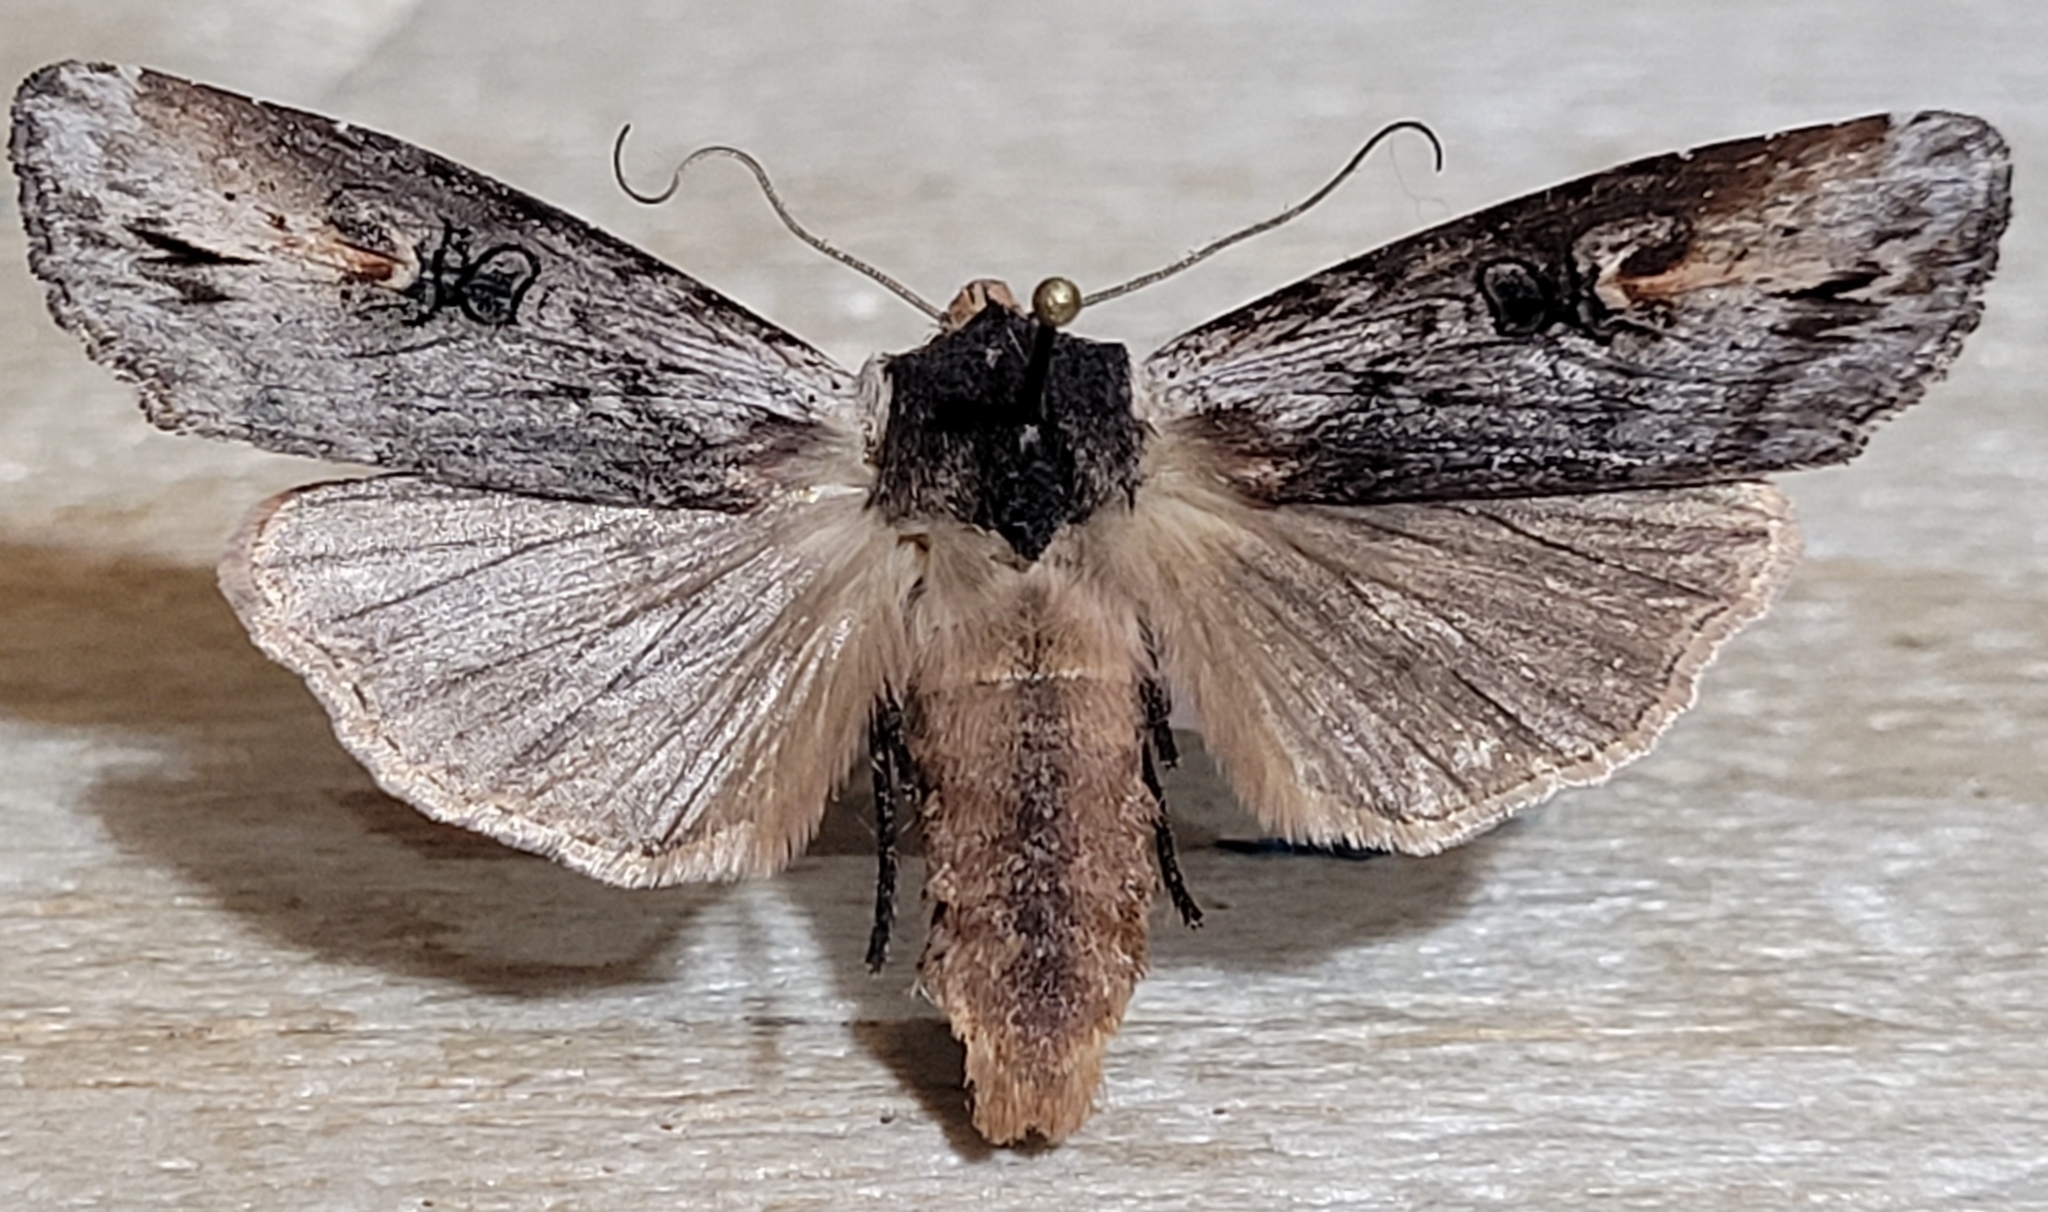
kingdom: Animalia
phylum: Arthropoda
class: Insecta
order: Lepidoptera
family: Noctuidae
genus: Xylena
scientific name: Xylena thoracica
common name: Acadian swordgrass moth
